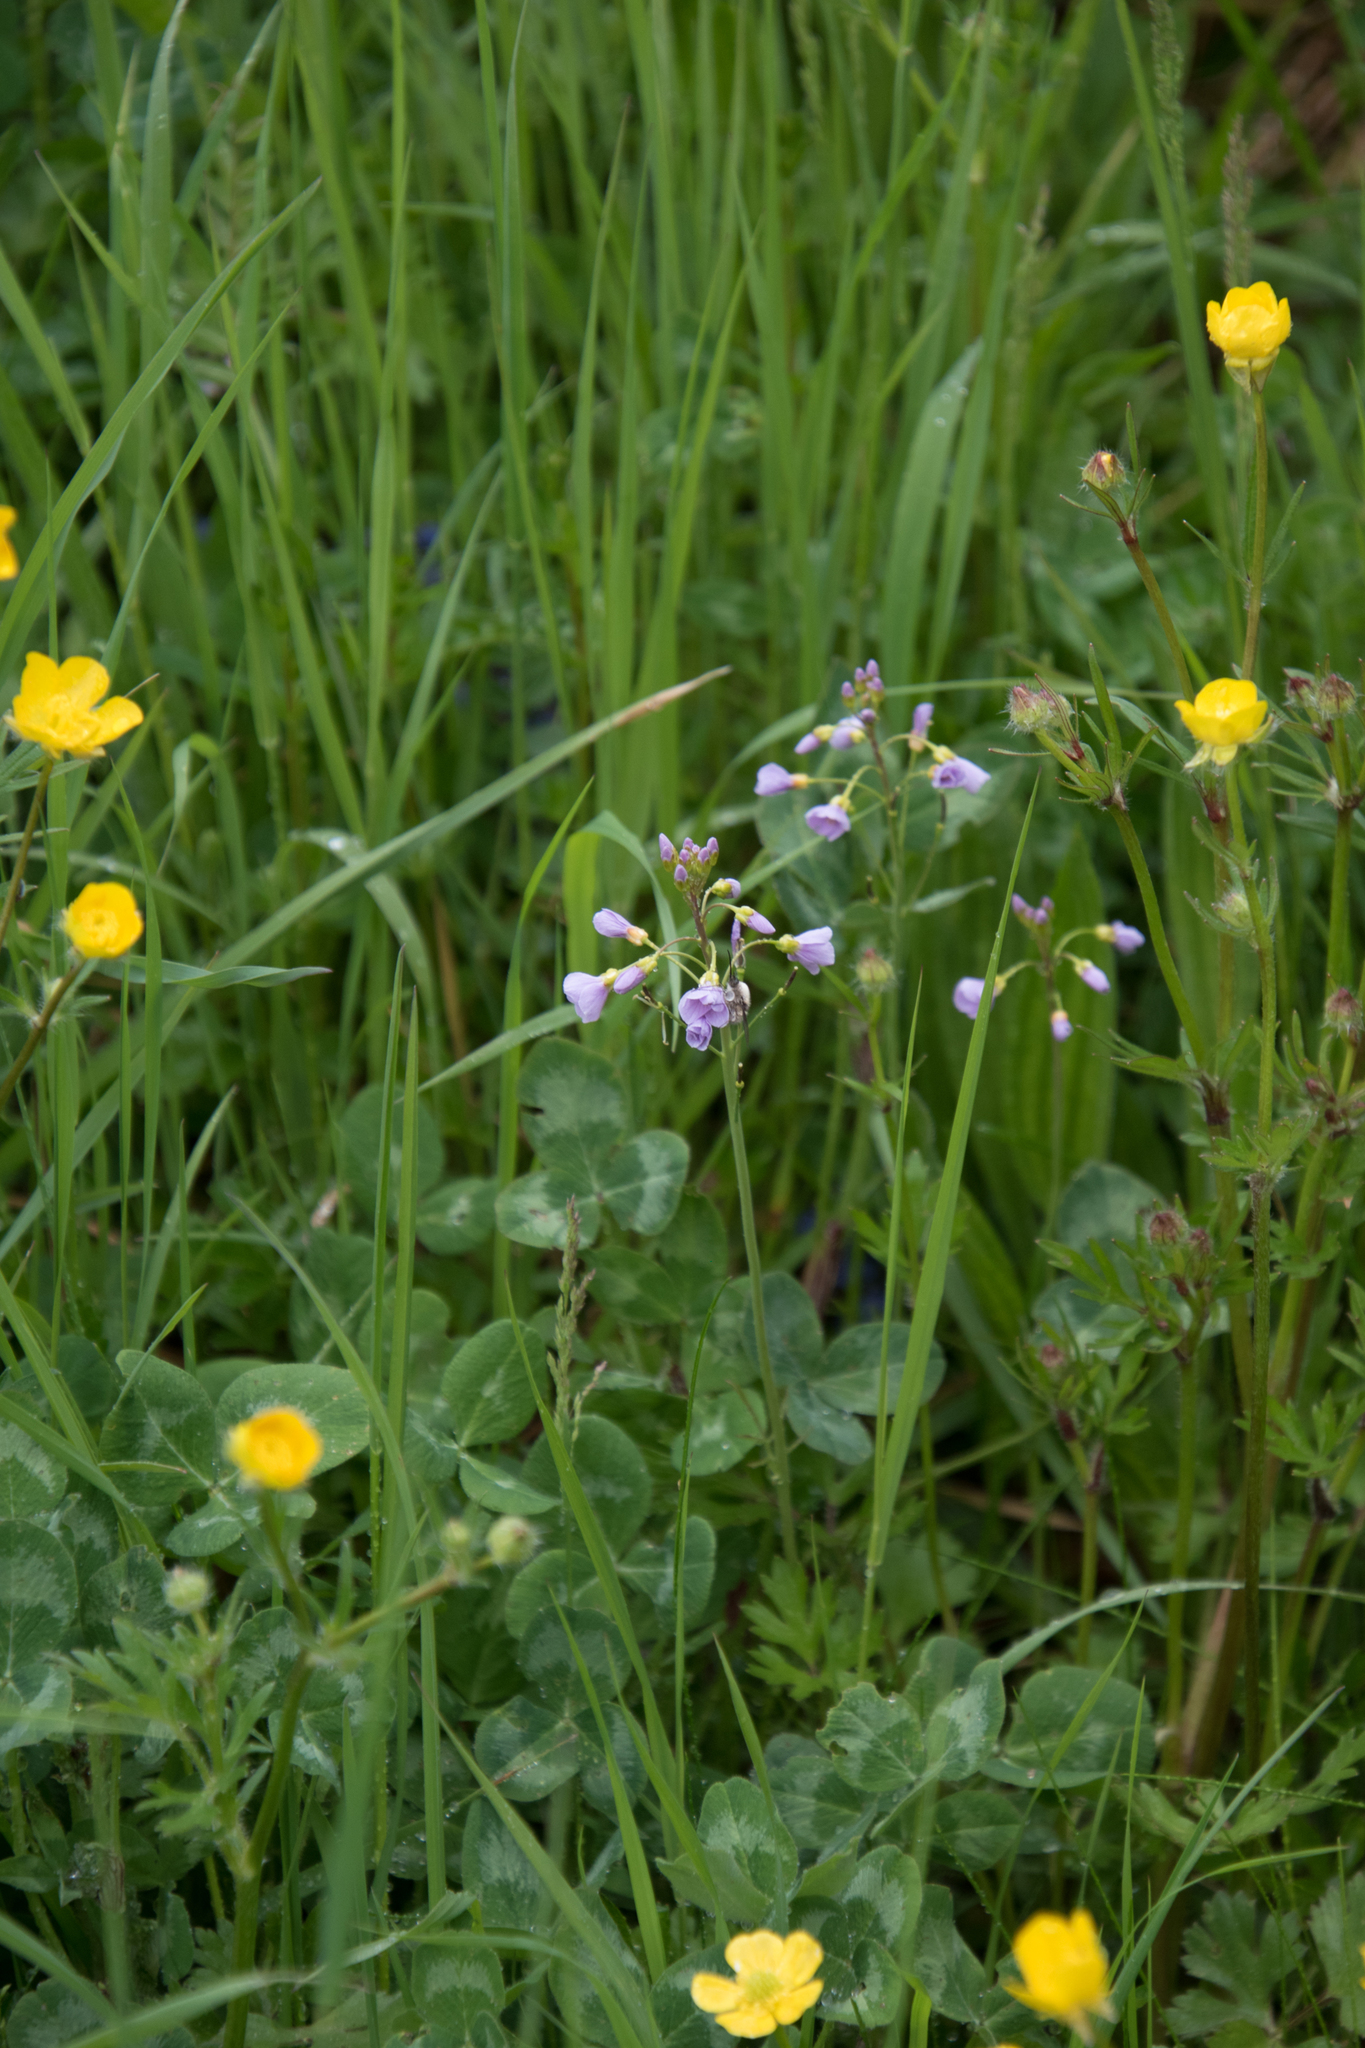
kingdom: Plantae
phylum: Tracheophyta
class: Magnoliopsida
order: Brassicales
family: Brassicaceae
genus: Cardamine
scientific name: Cardamine pratensis
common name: Cuckoo flower
